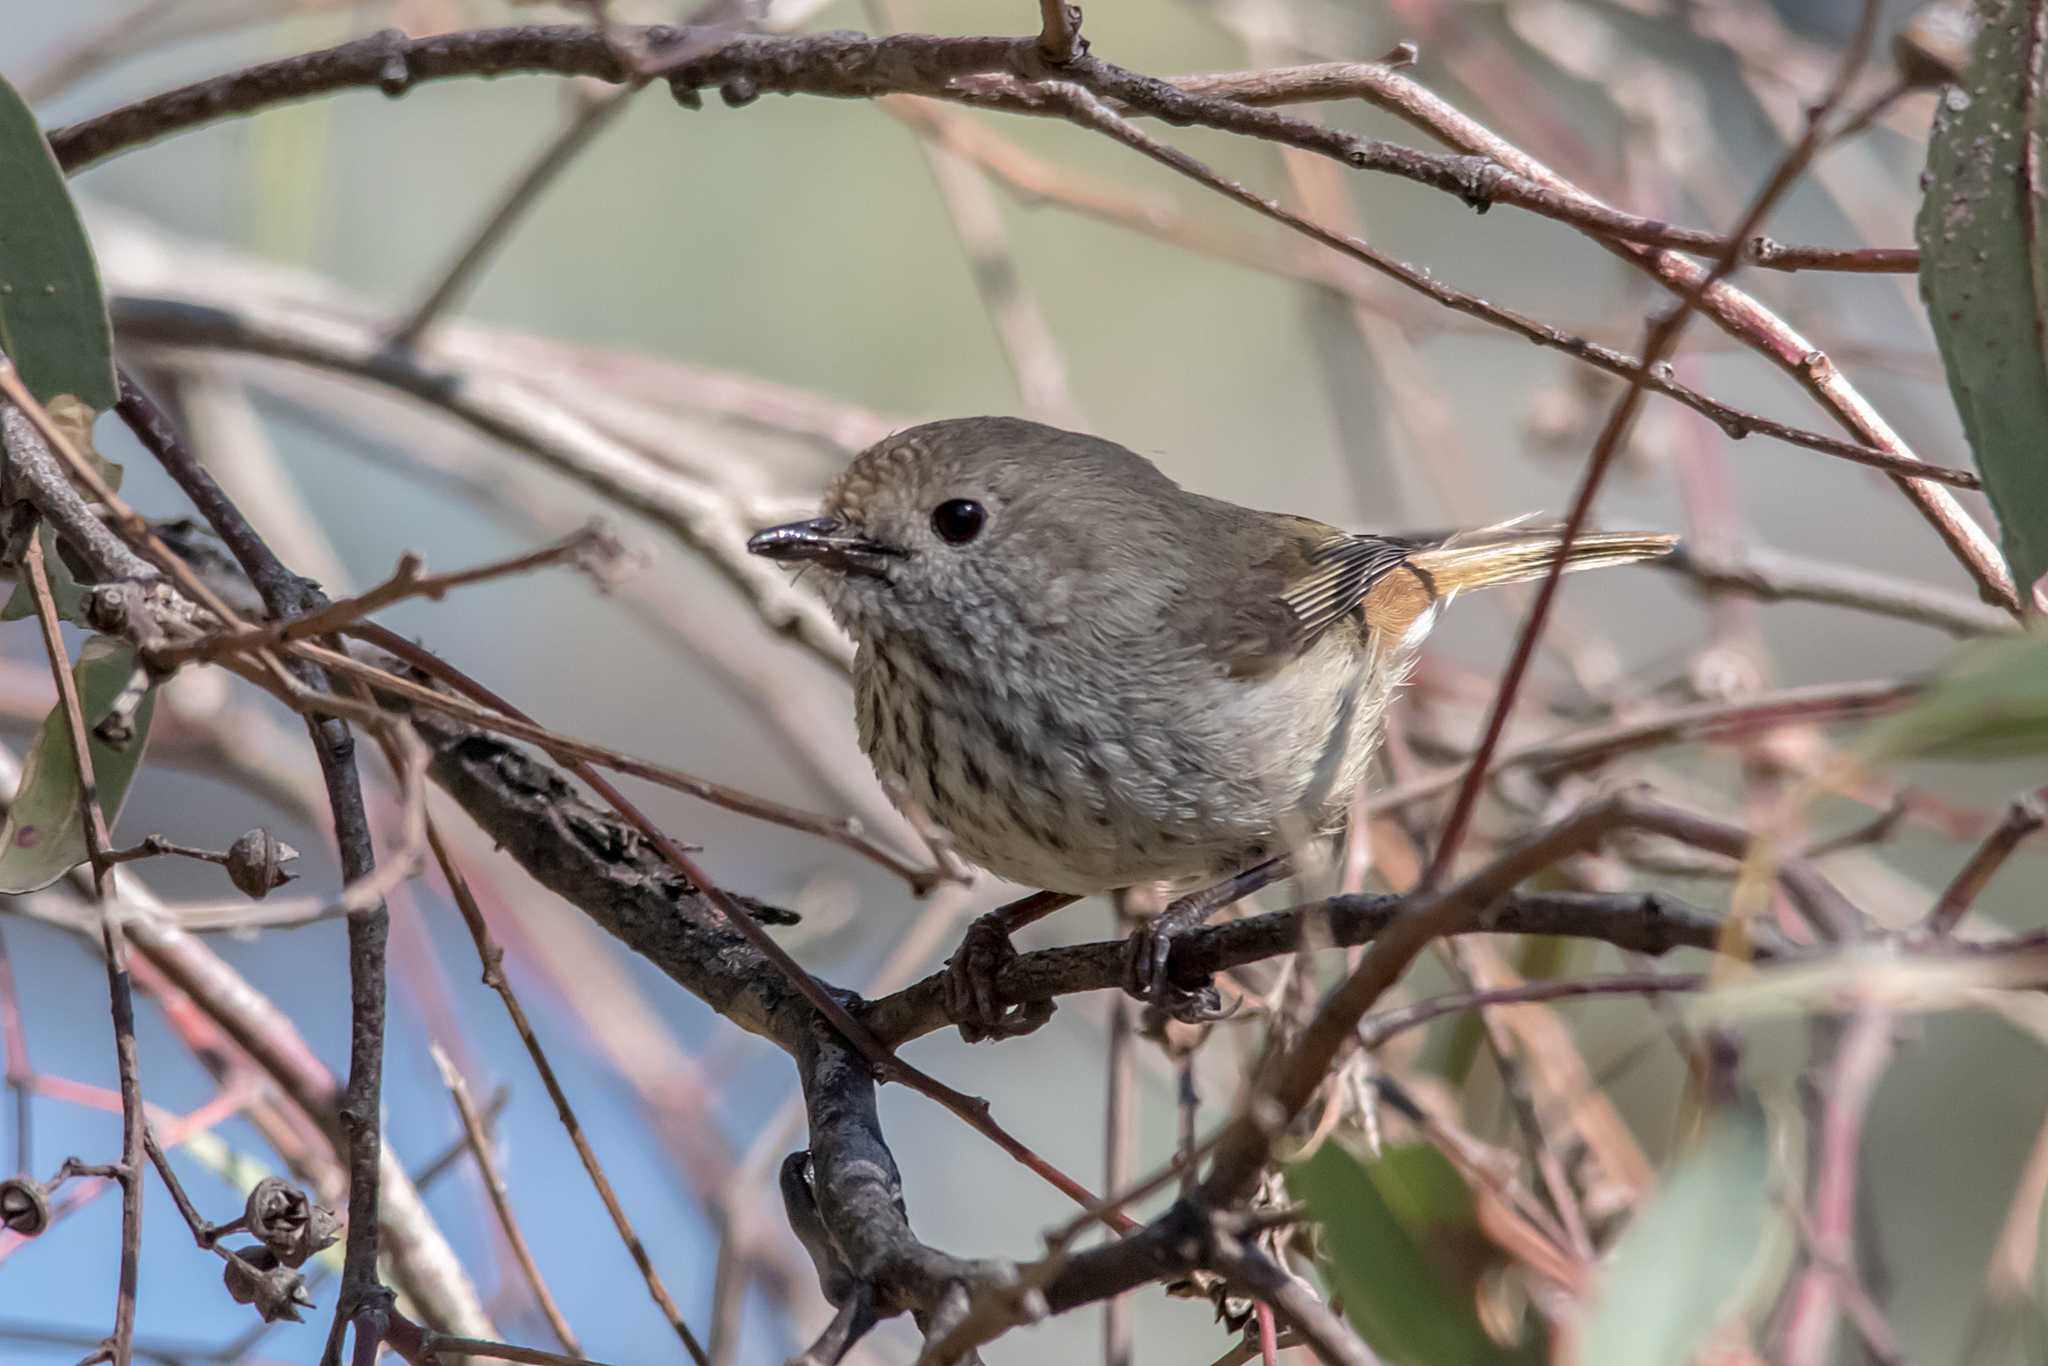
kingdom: Animalia
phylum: Chordata
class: Aves
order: Passeriformes
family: Acanthizidae
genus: Acanthiza
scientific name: Acanthiza pusilla
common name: Brown thornbill
